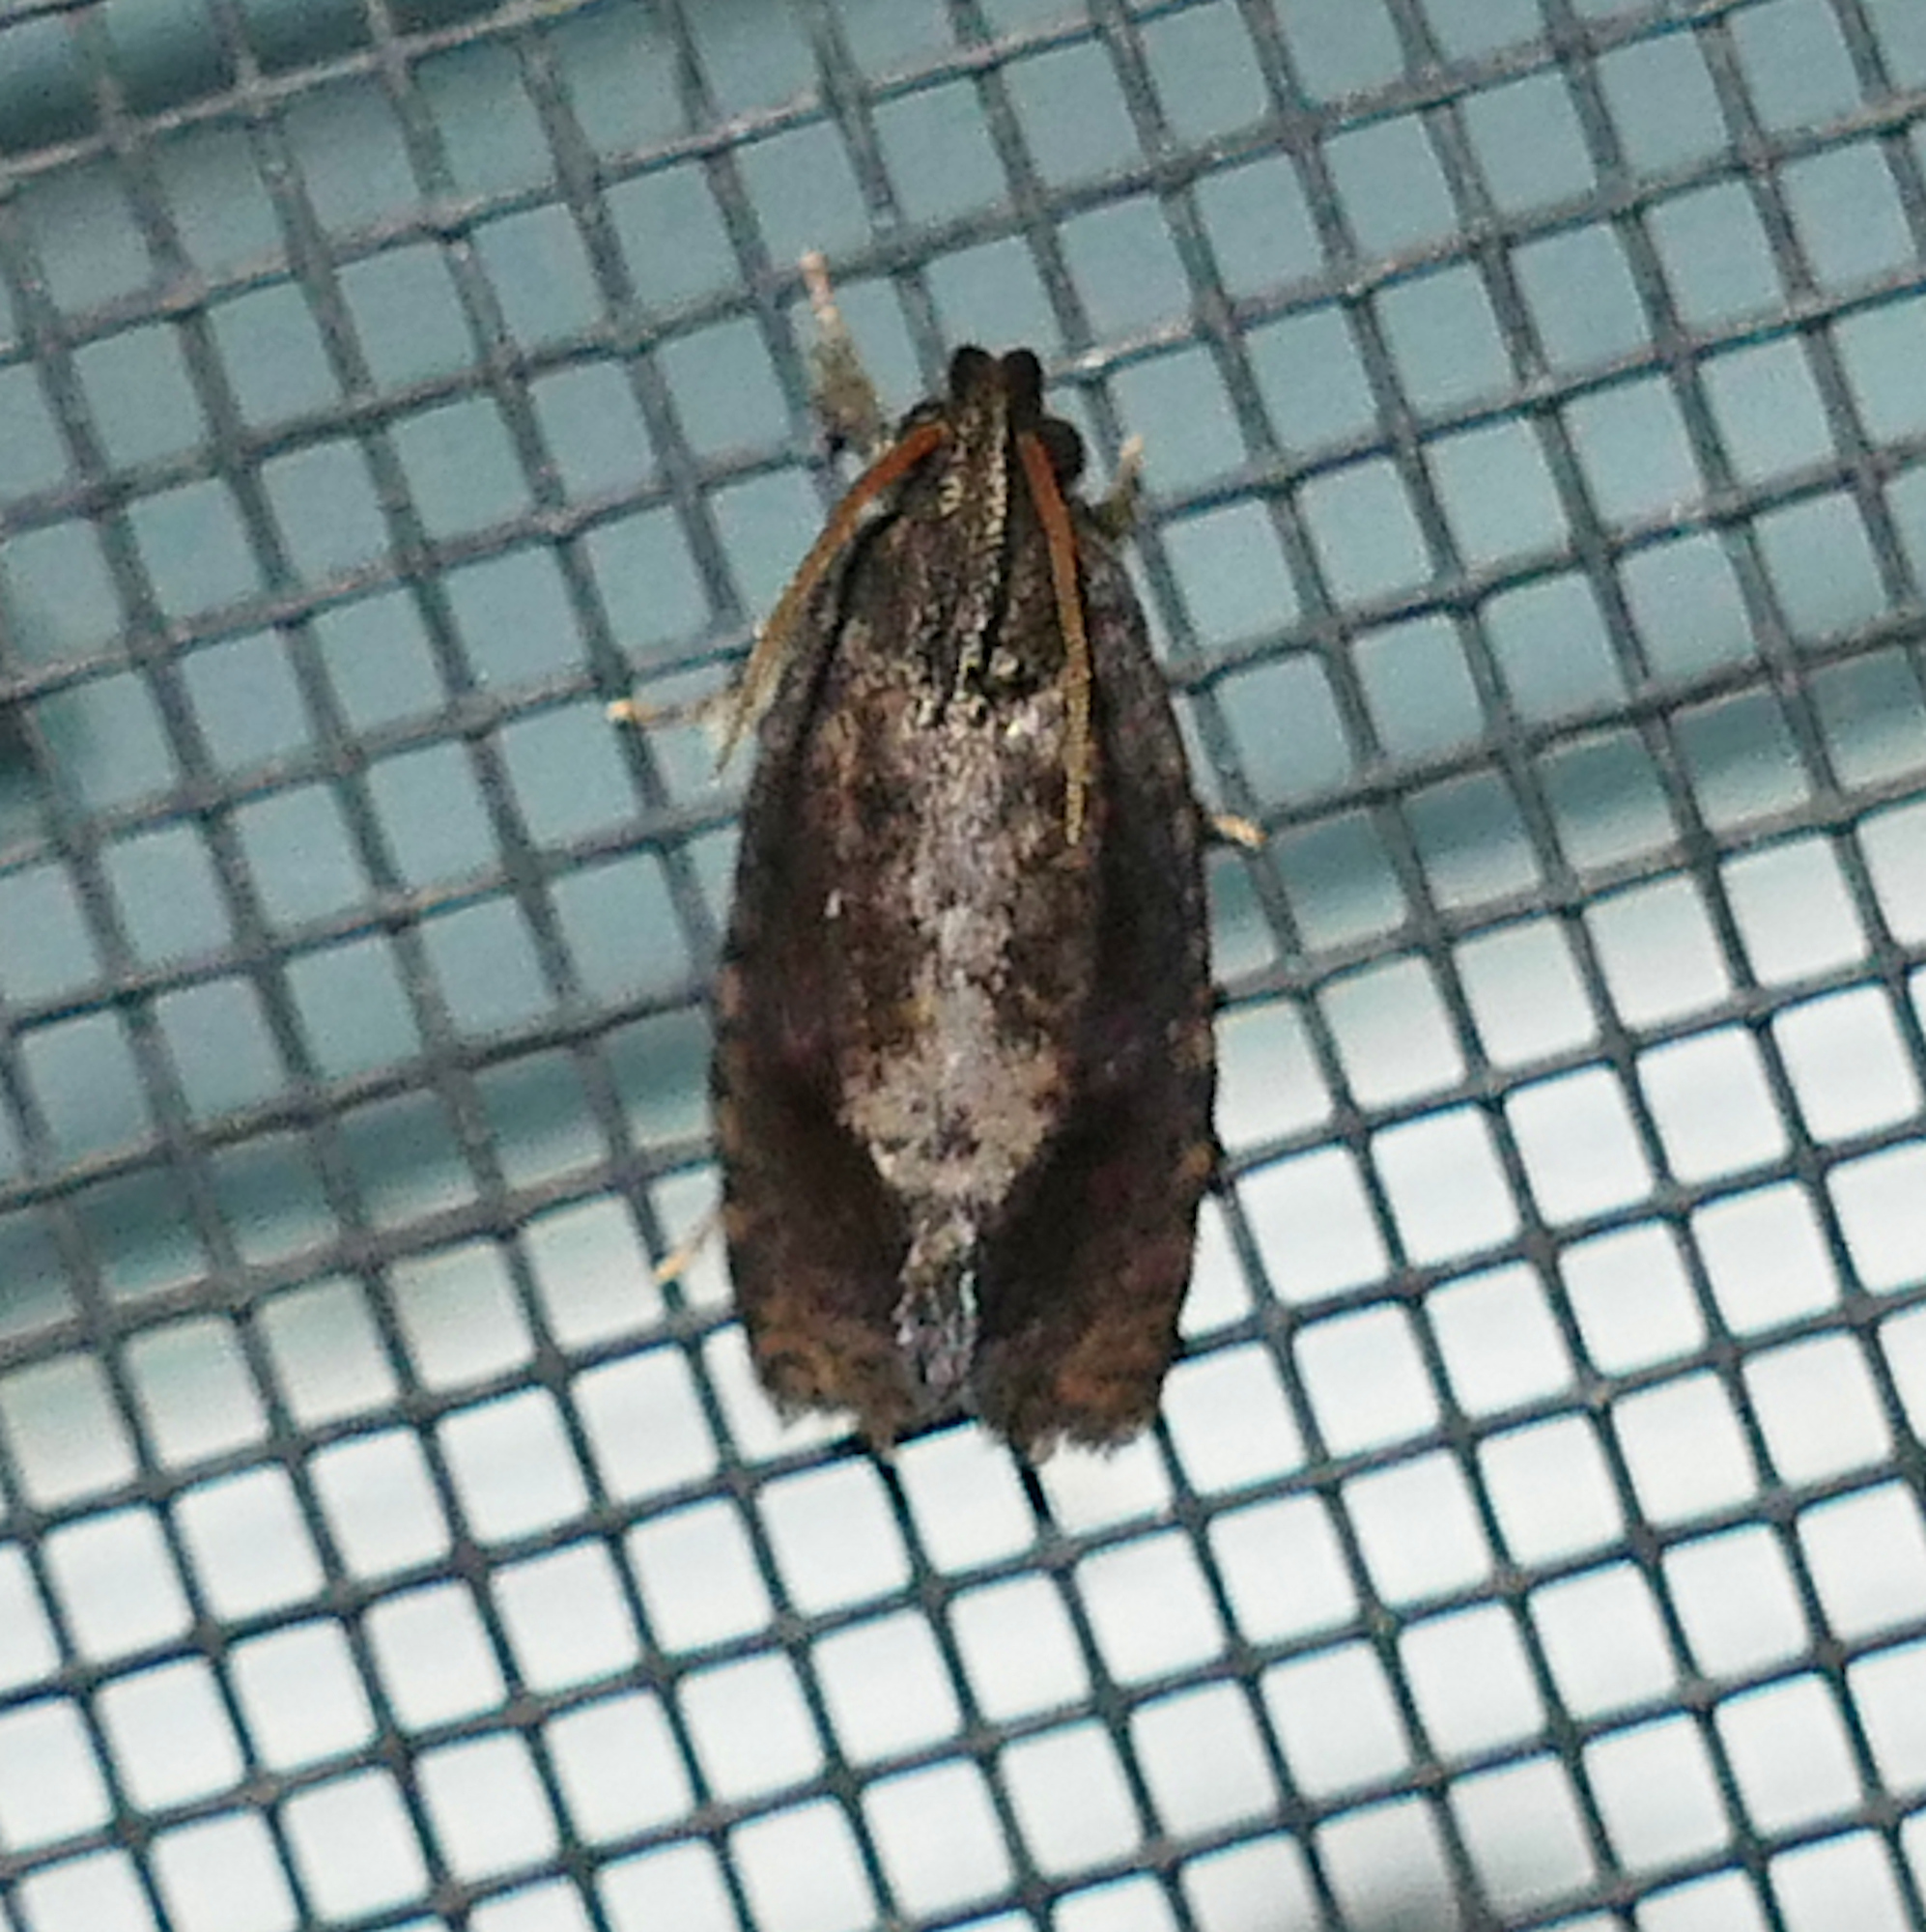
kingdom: Animalia
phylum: Arthropoda
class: Insecta
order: Lepidoptera
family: Tineidae
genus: Acrolophus
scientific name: Acrolophus texanella
